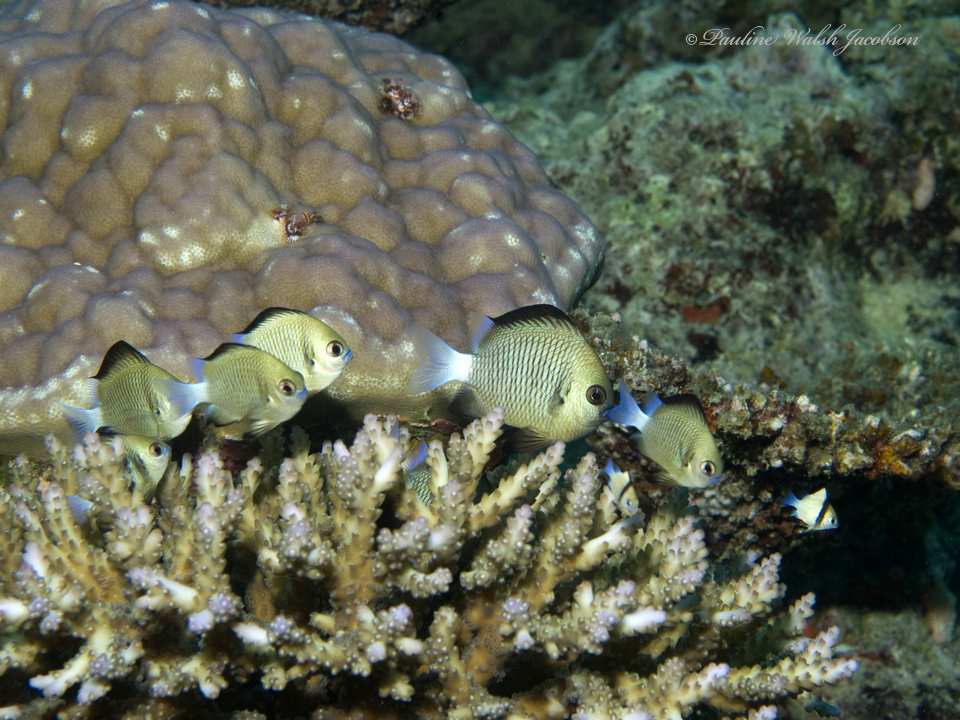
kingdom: Animalia
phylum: Chordata
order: Perciformes
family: Pomacentridae
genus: Dascyllus
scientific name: Dascyllus reticulatus
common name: Reticulated dascyllus
